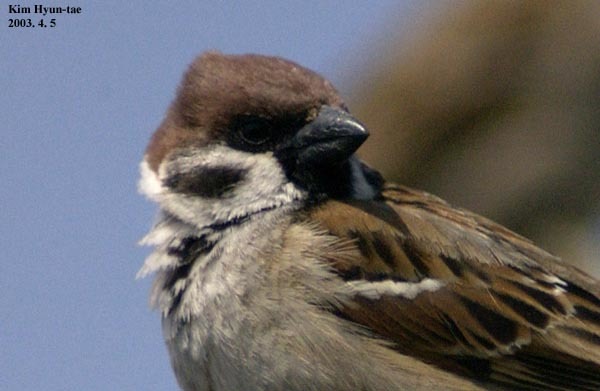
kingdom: Animalia
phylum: Chordata
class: Aves
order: Passeriformes
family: Passeridae
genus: Passer
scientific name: Passer montanus
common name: Eurasian tree sparrow
